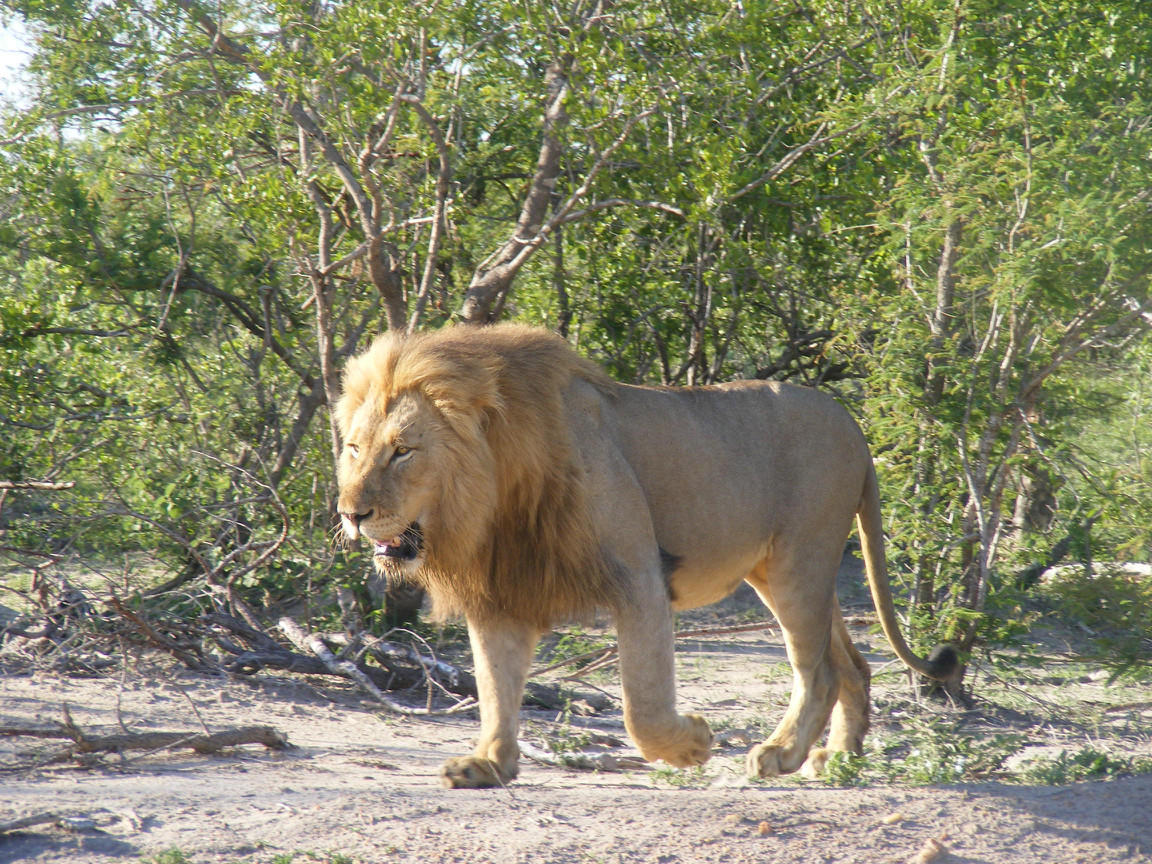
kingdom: Animalia
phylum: Chordata
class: Mammalia
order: Carnivora
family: Felidae
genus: Panthera
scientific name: Panthera leo
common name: Lion
